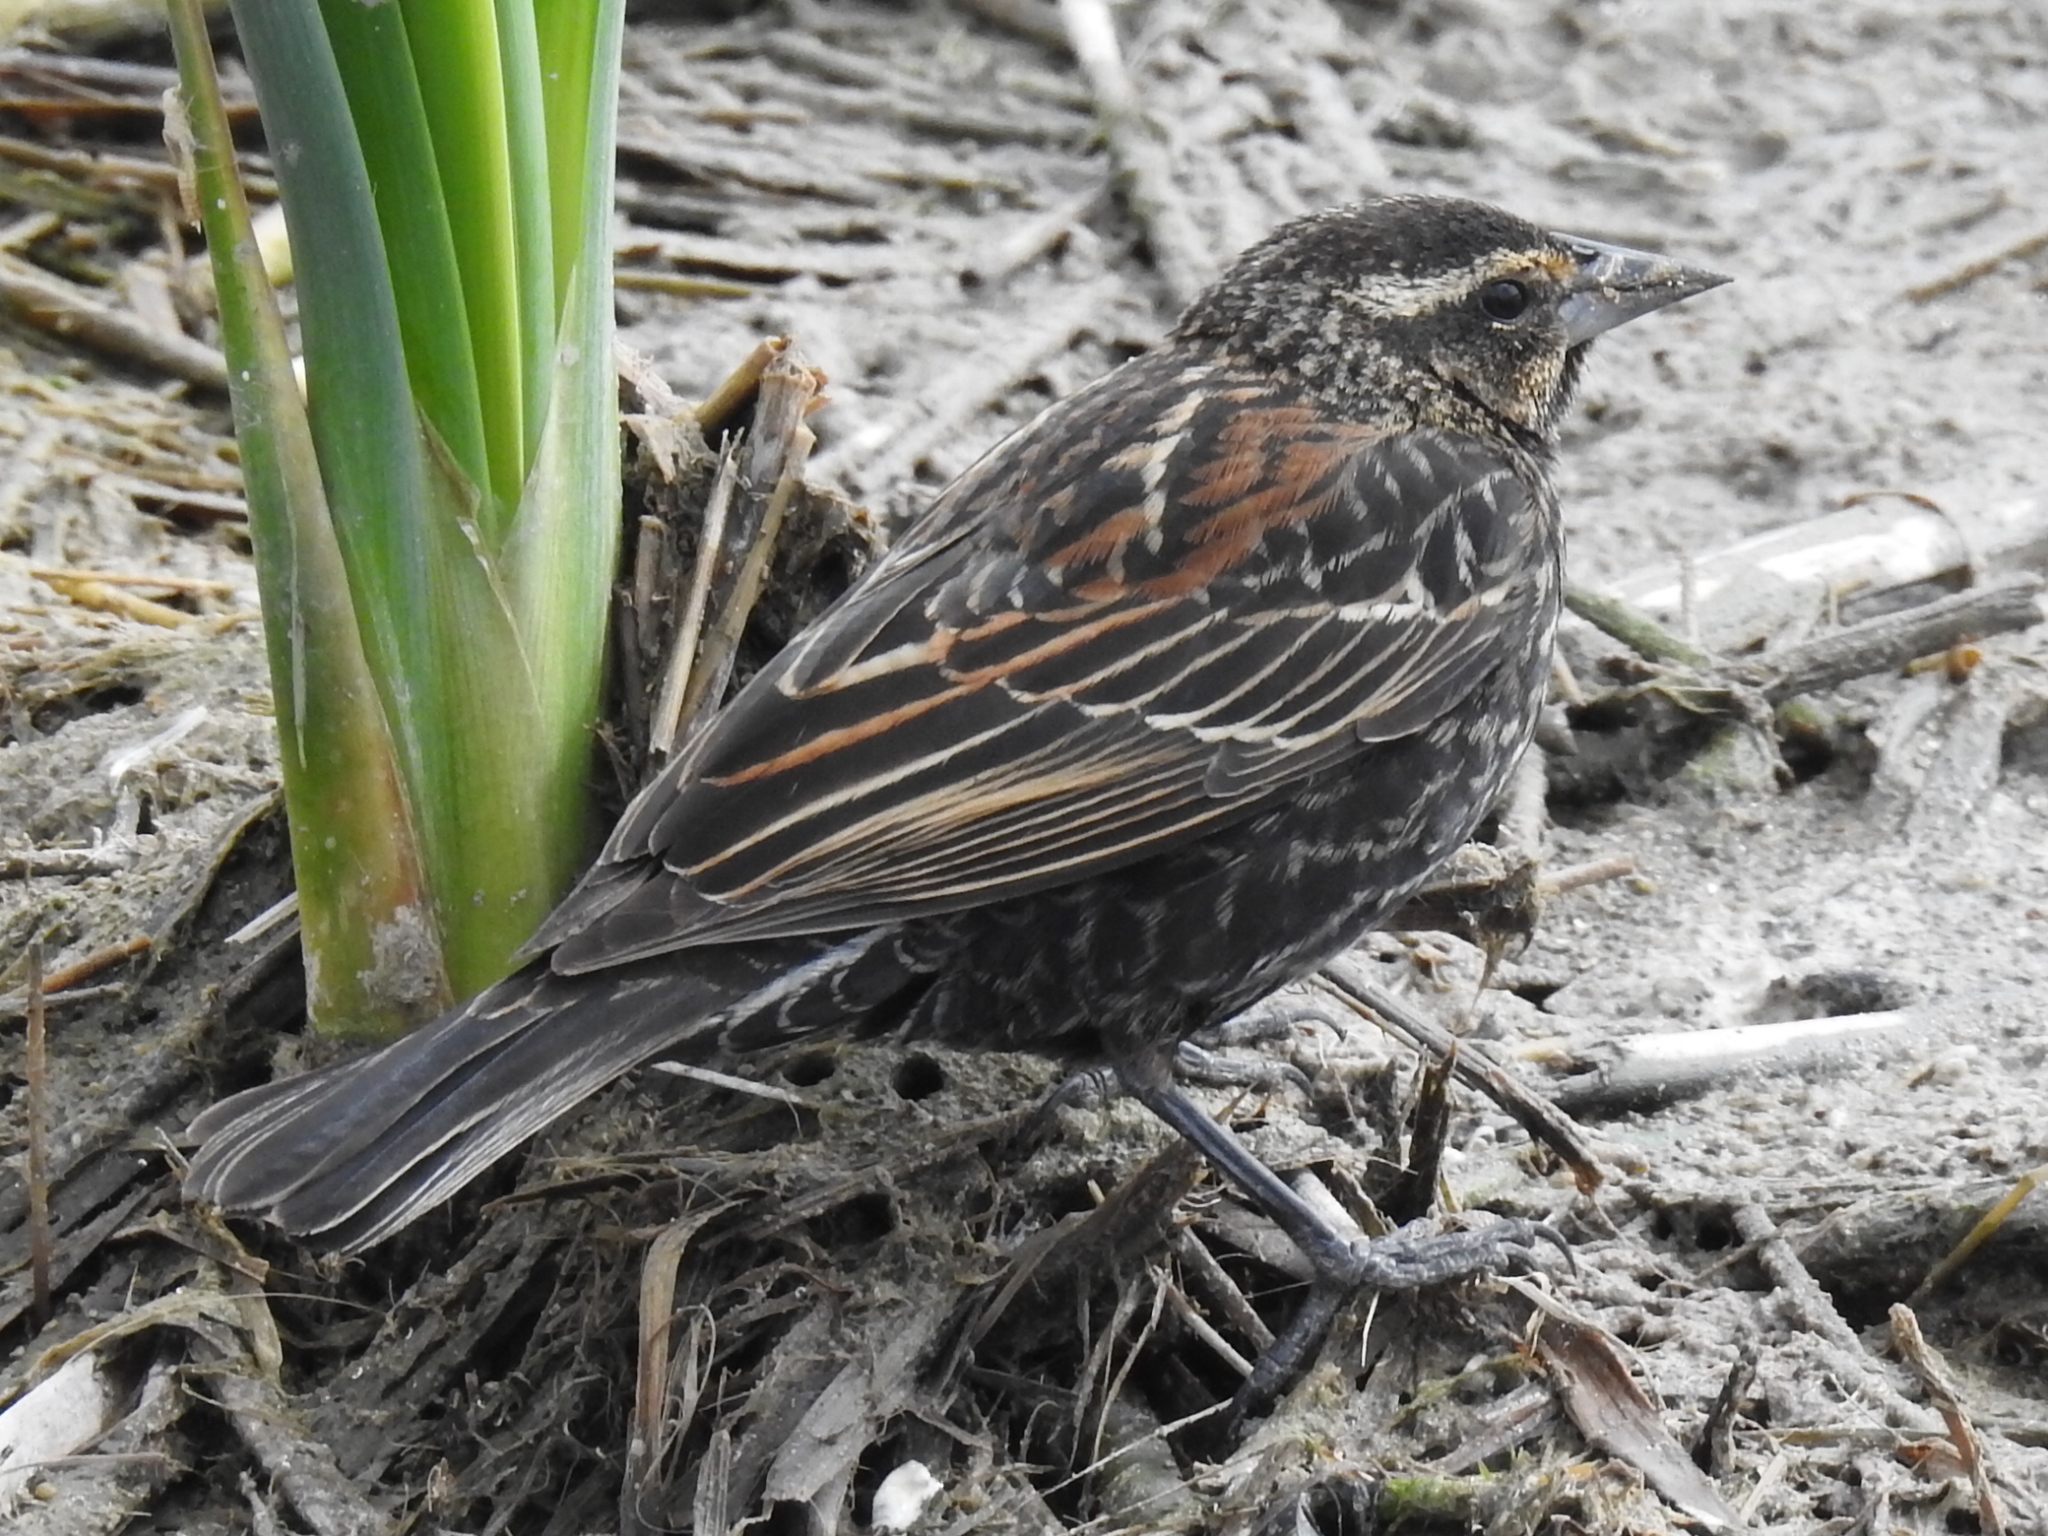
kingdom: Animalia
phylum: Chordata
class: Aves
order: Passeriformes
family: Icteridae
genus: Agelaius
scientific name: Agelaius phoeniceus
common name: Red-winged blackbird
